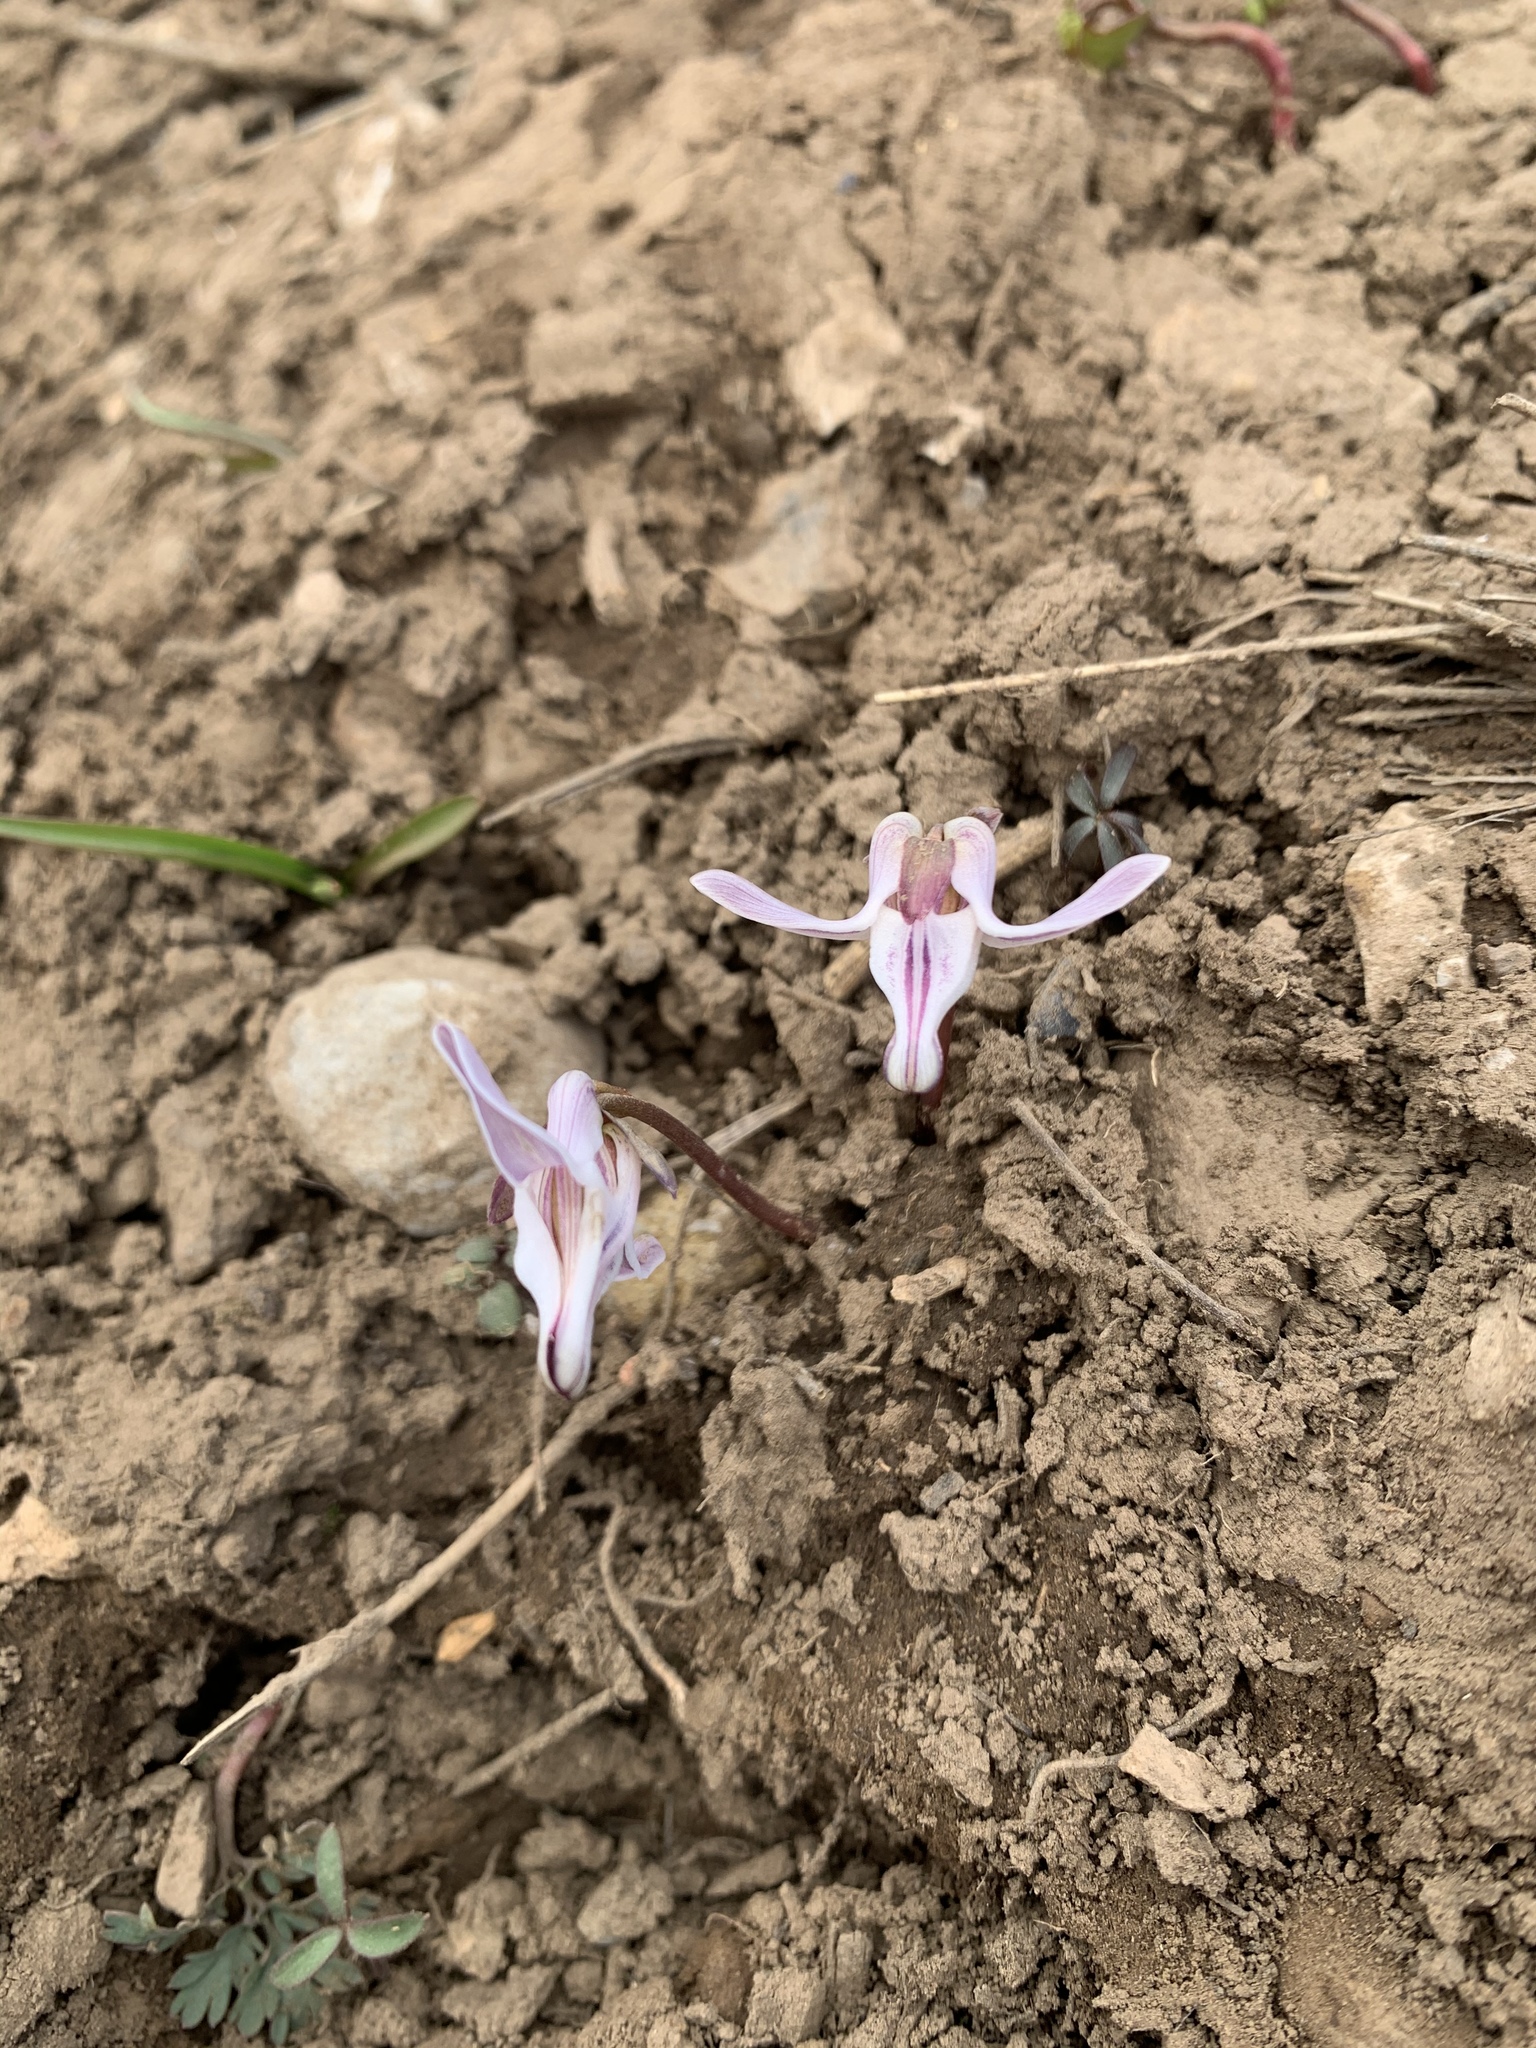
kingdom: Plantae
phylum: Tracheophyta
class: Magnoliopsida
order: Ranunculales
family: Papaveraceae
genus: Dicentra
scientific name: Dicentra uniflora
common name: Steer's-head
